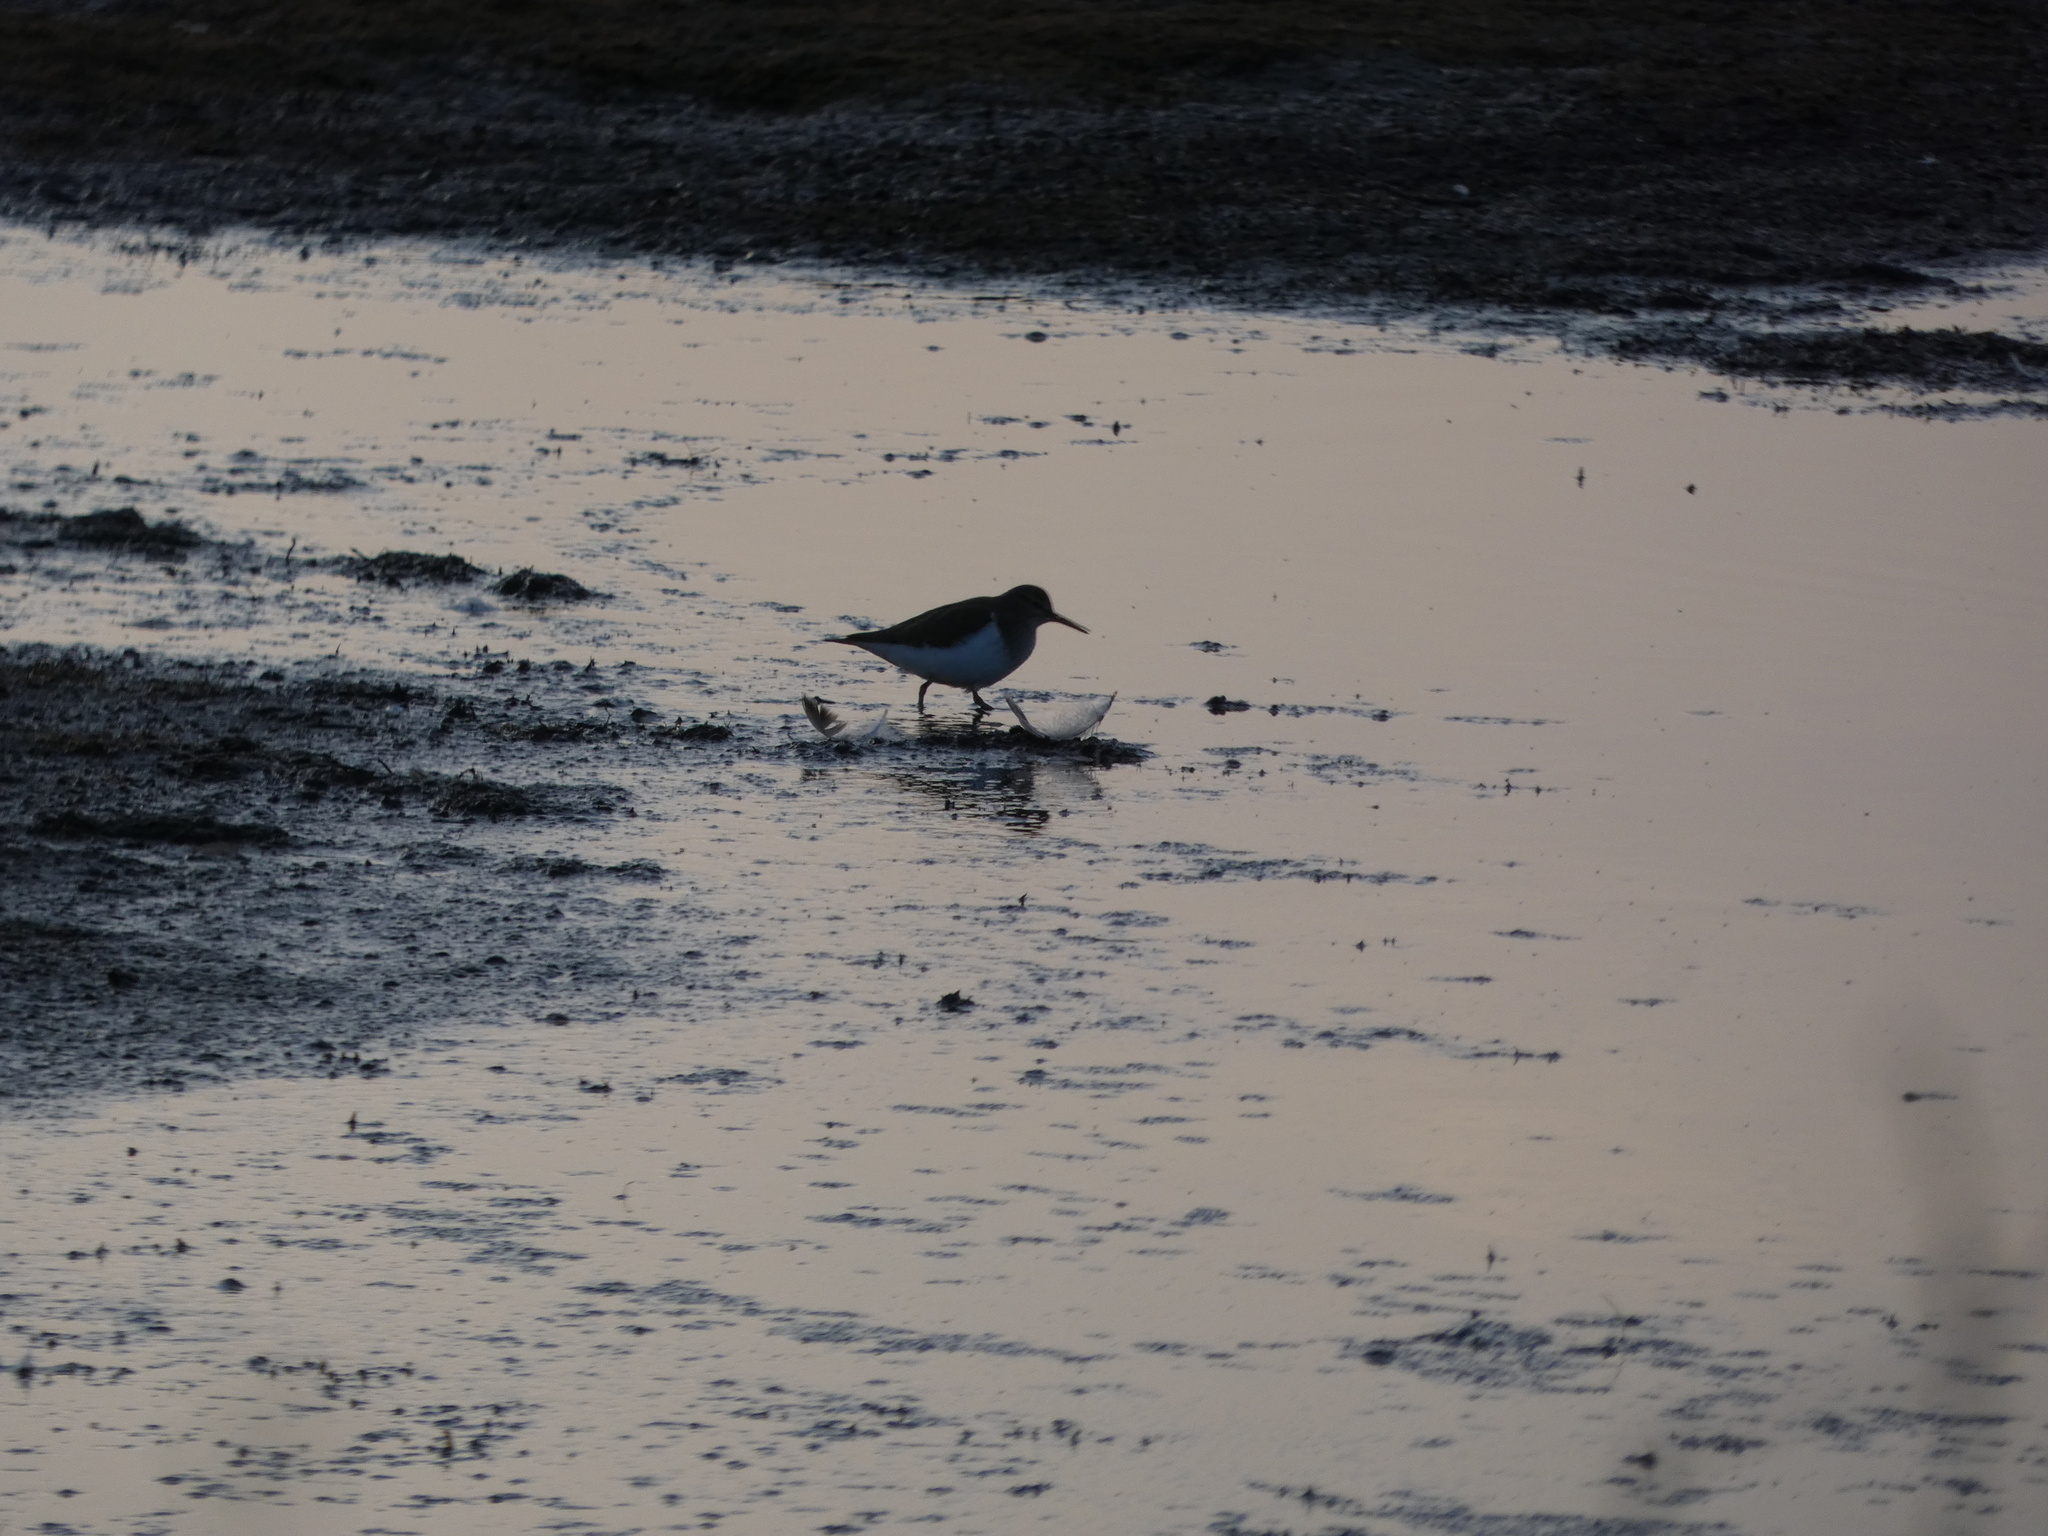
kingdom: Animalia
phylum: Chordata
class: Aves
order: Charadriiformes
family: Scolopacidae
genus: Actitis
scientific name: Actitis hypoleucos
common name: Common sandpiper
